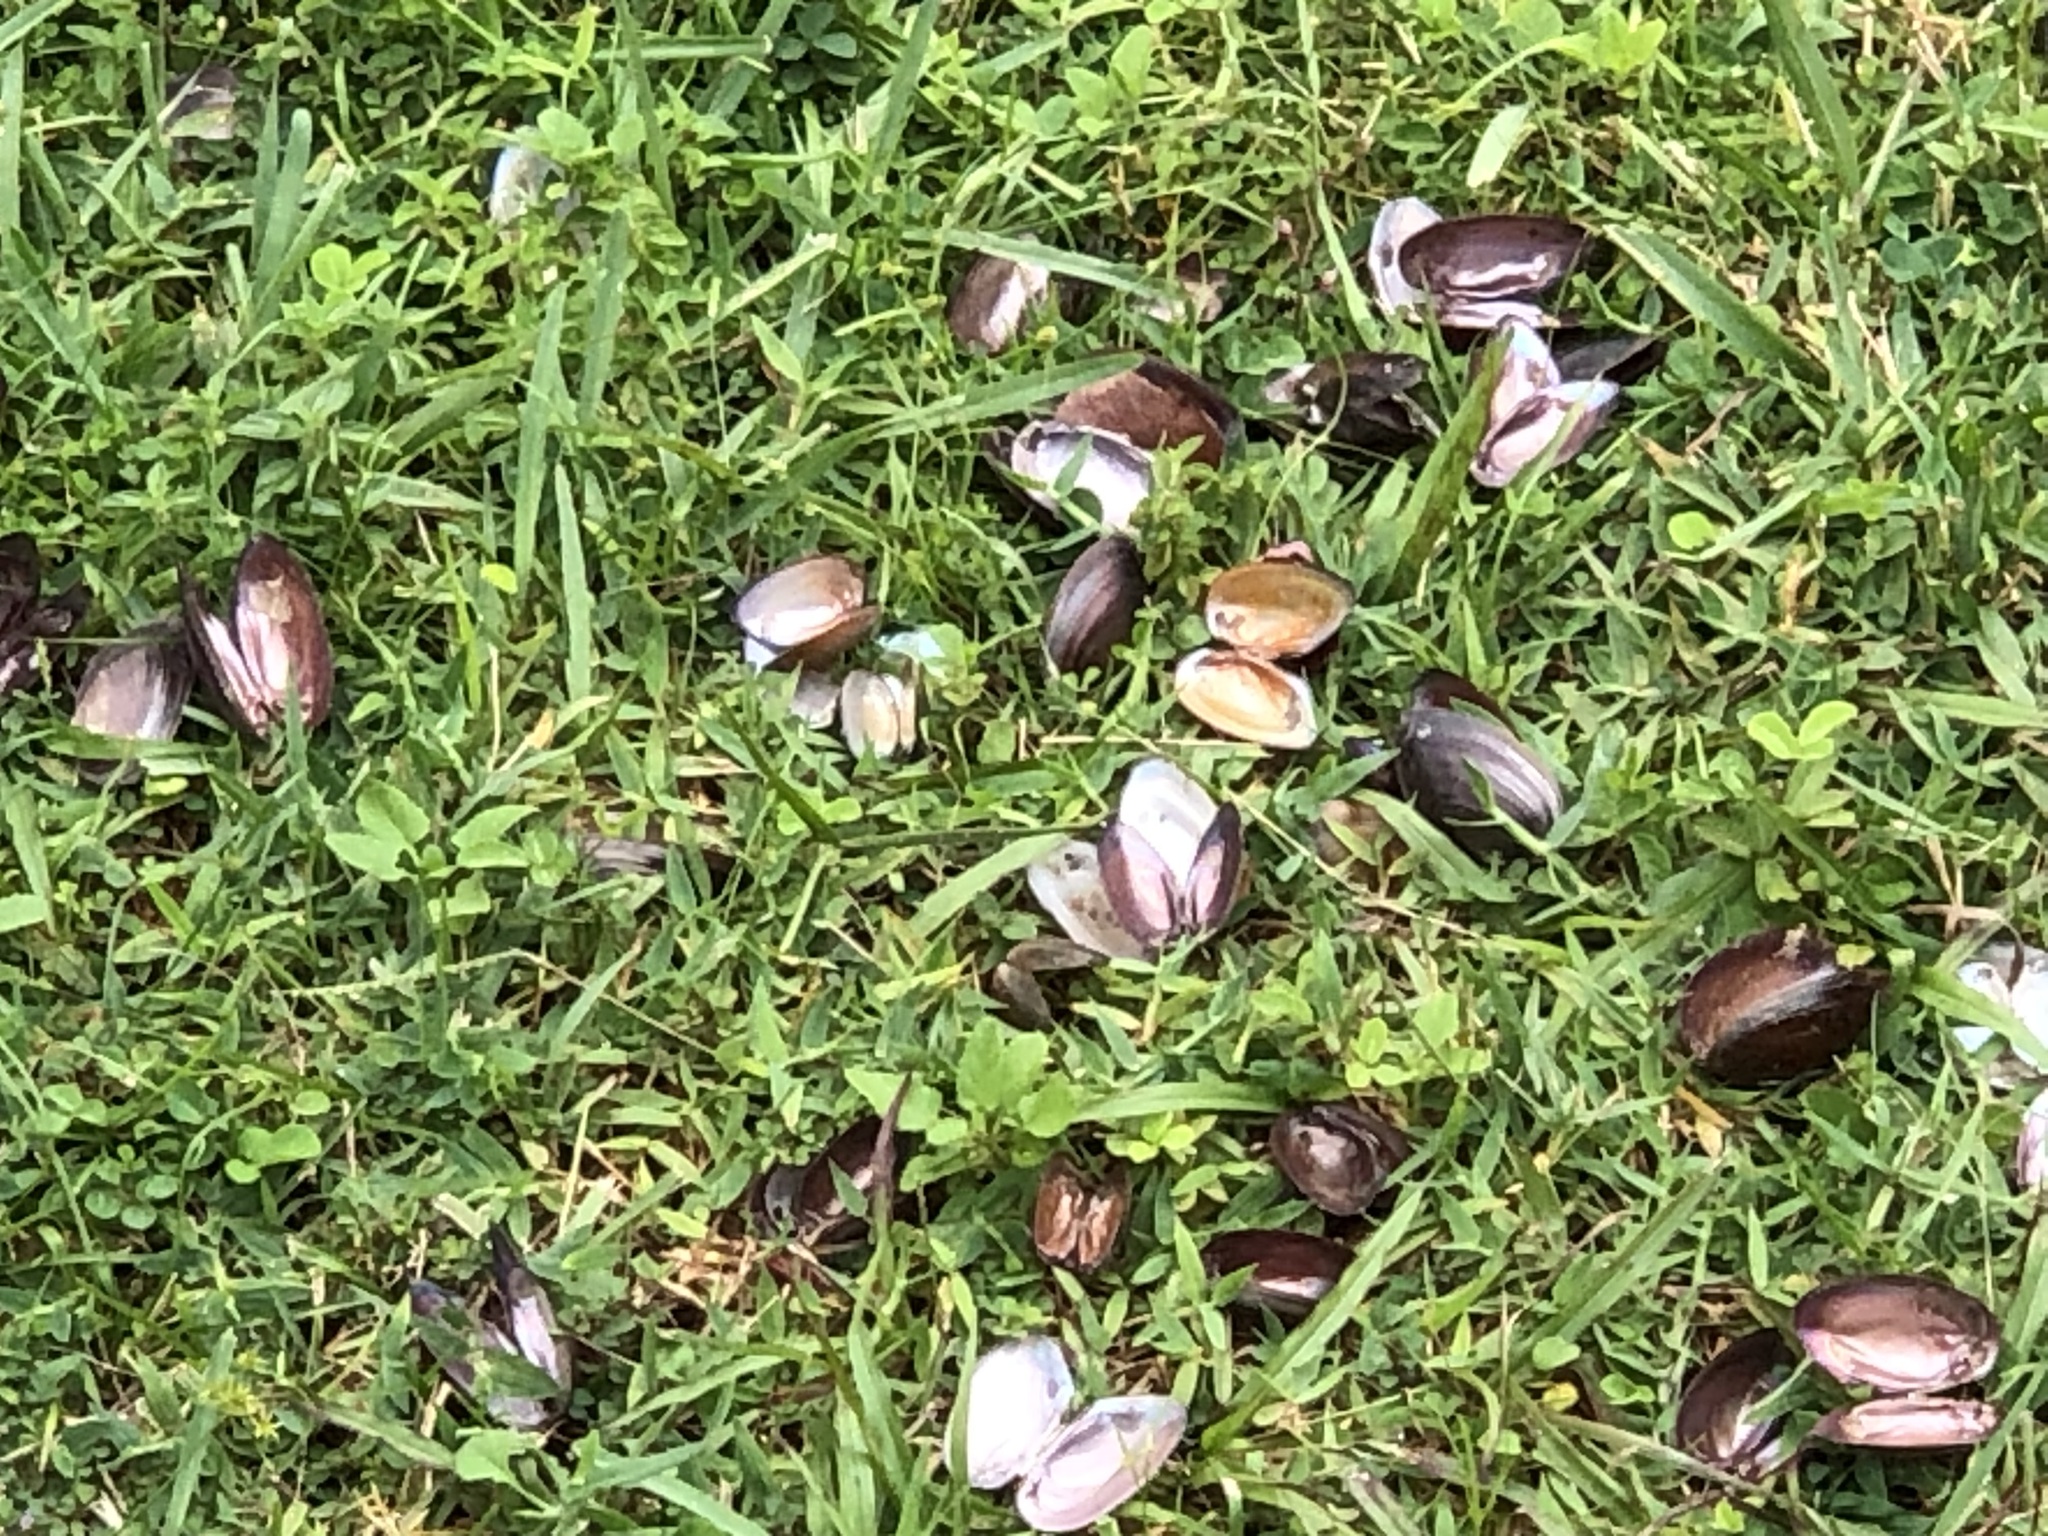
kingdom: Animalia
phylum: Mollusca
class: Bivalvia
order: Unionida
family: Unionidae
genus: Elliptio
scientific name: Elliptio jayensis
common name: Florida spike
